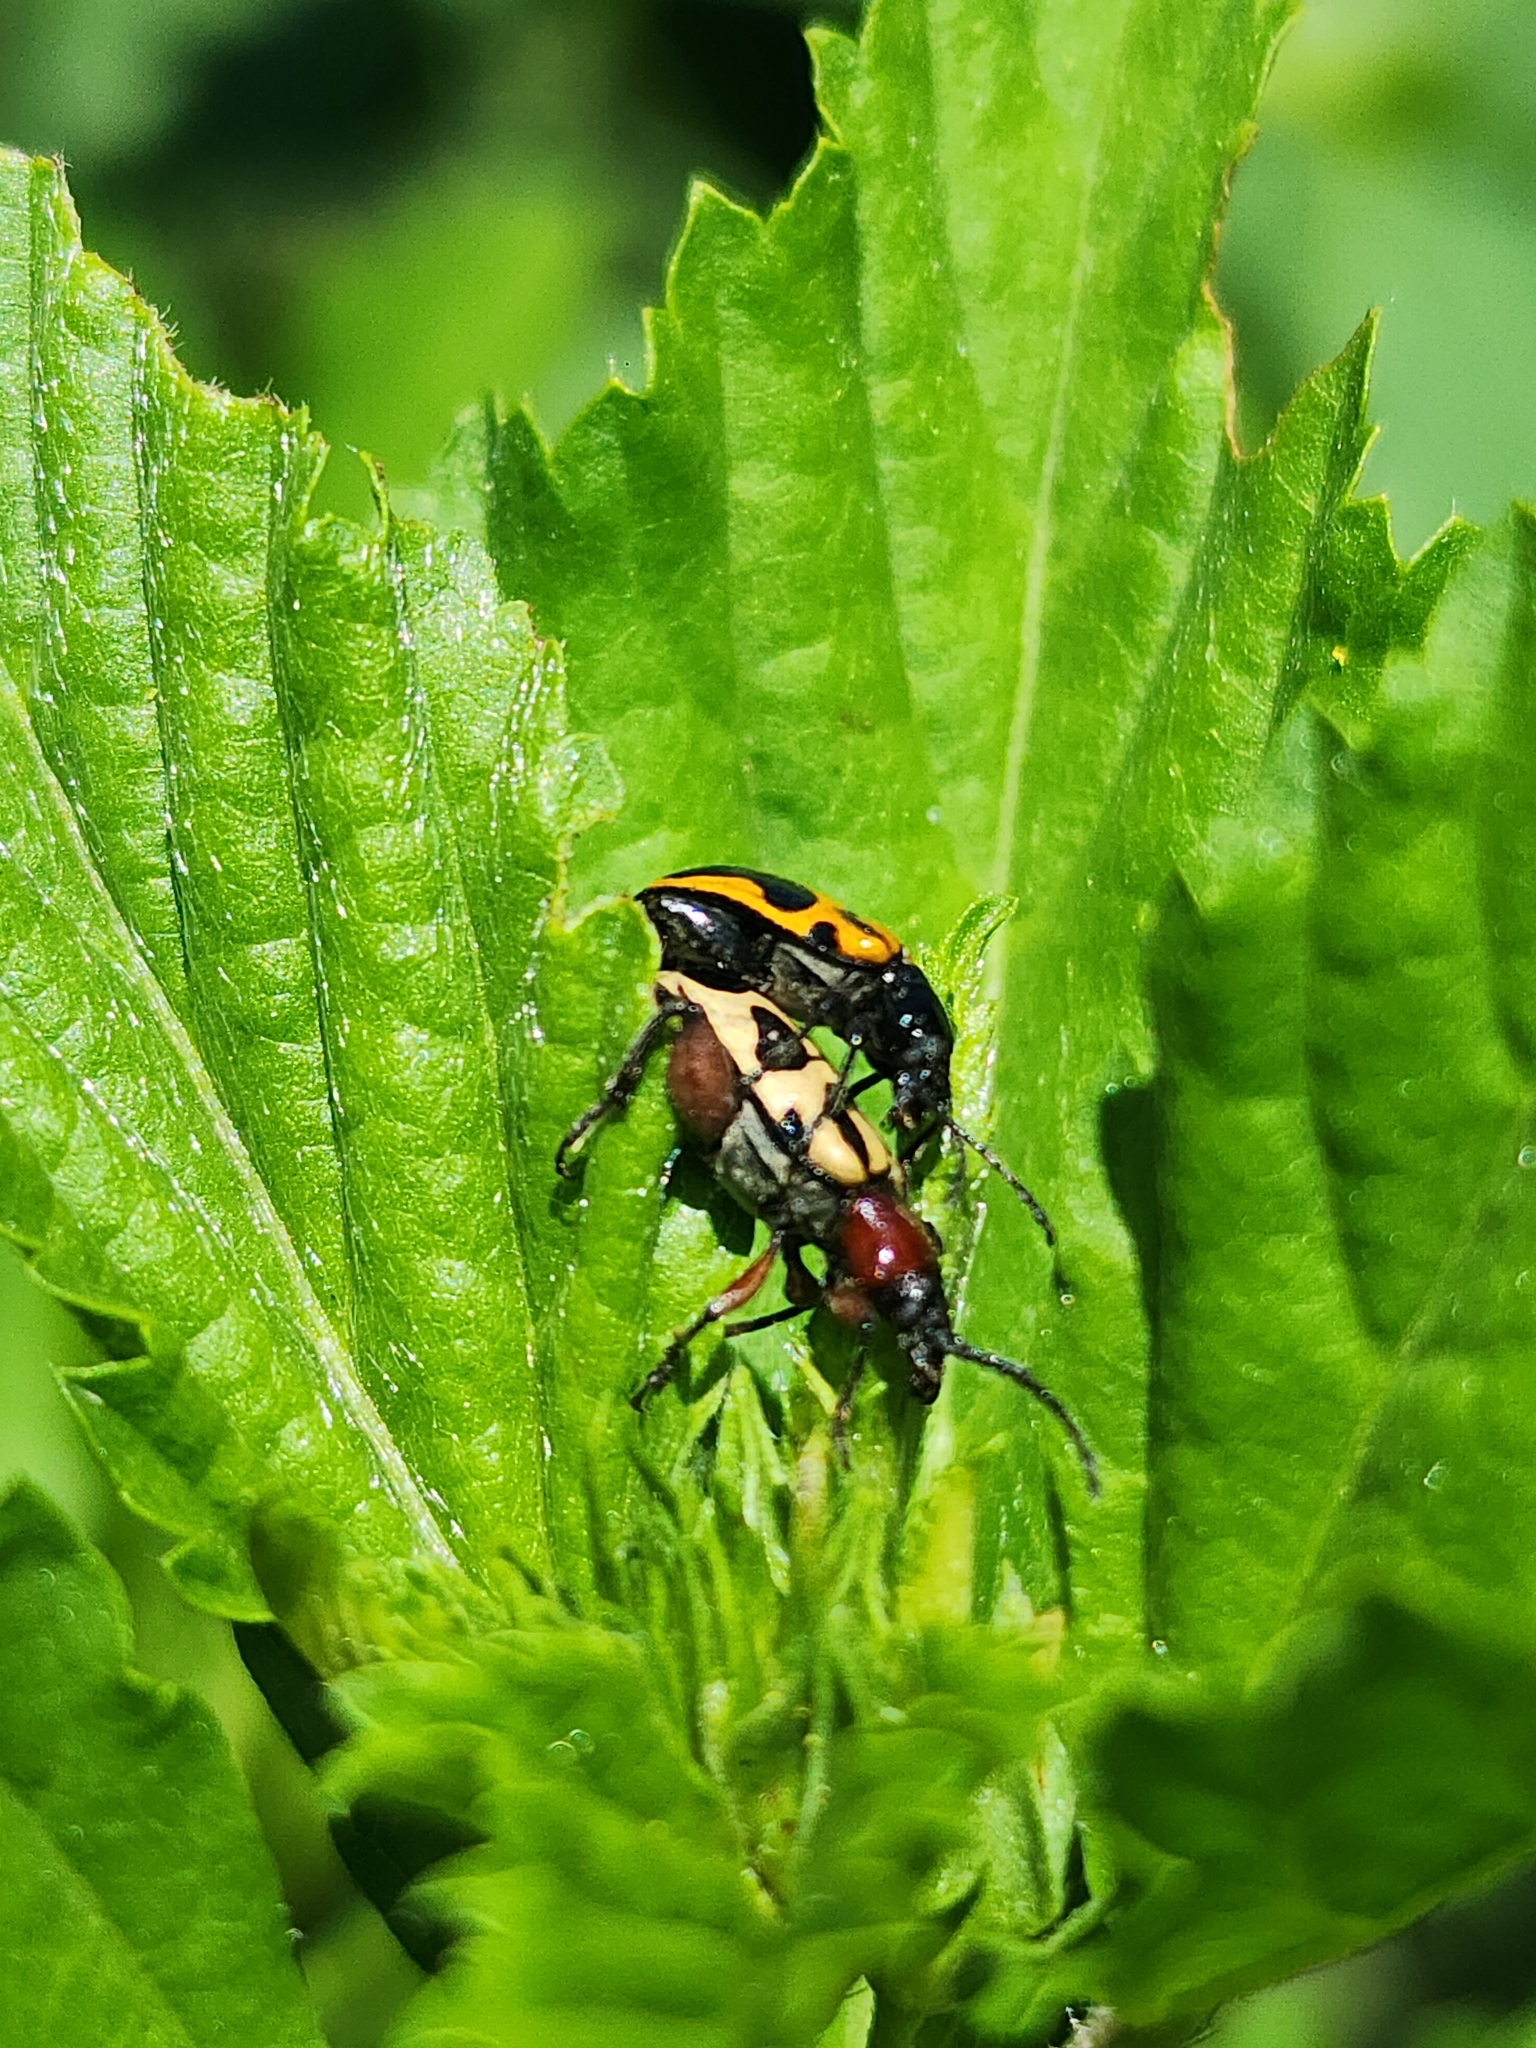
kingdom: Animalia
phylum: Arthropoda
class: Insecta
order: Coleoptera
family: Chrysomelidae
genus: Atalasis
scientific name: Atalasis
